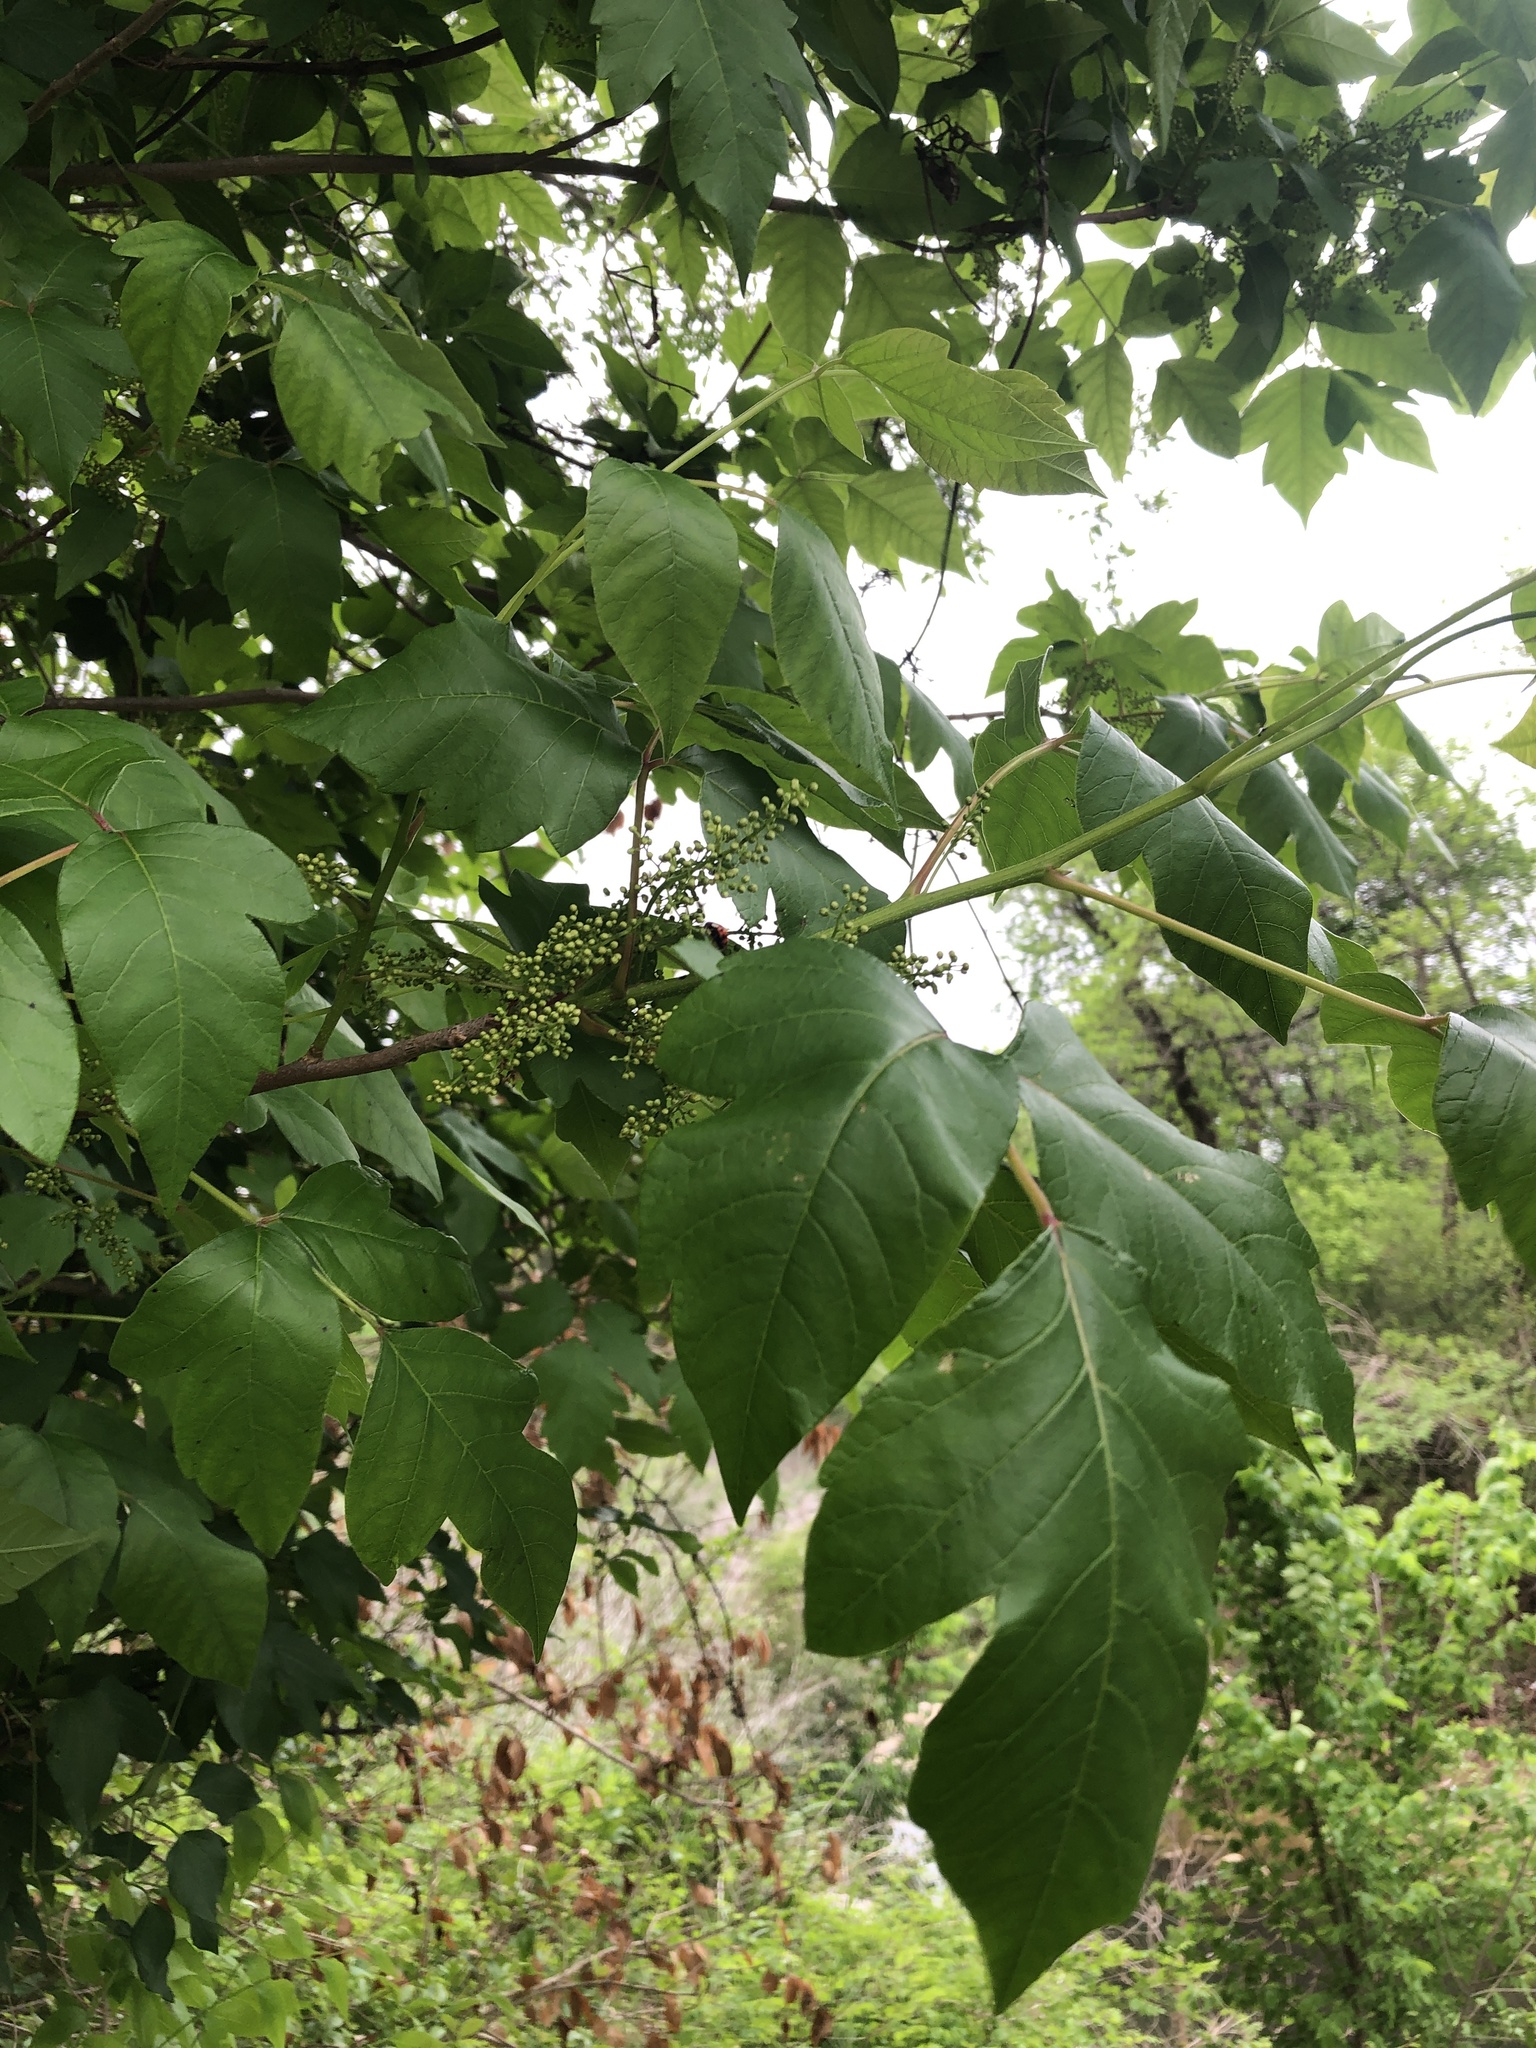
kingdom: Plantae
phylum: Tracheophyta
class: Magnoliopsida
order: Sapindales
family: Anacardiaceae
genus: Toxicodendron
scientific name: Toxicodendron radicans
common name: Poison ivy
